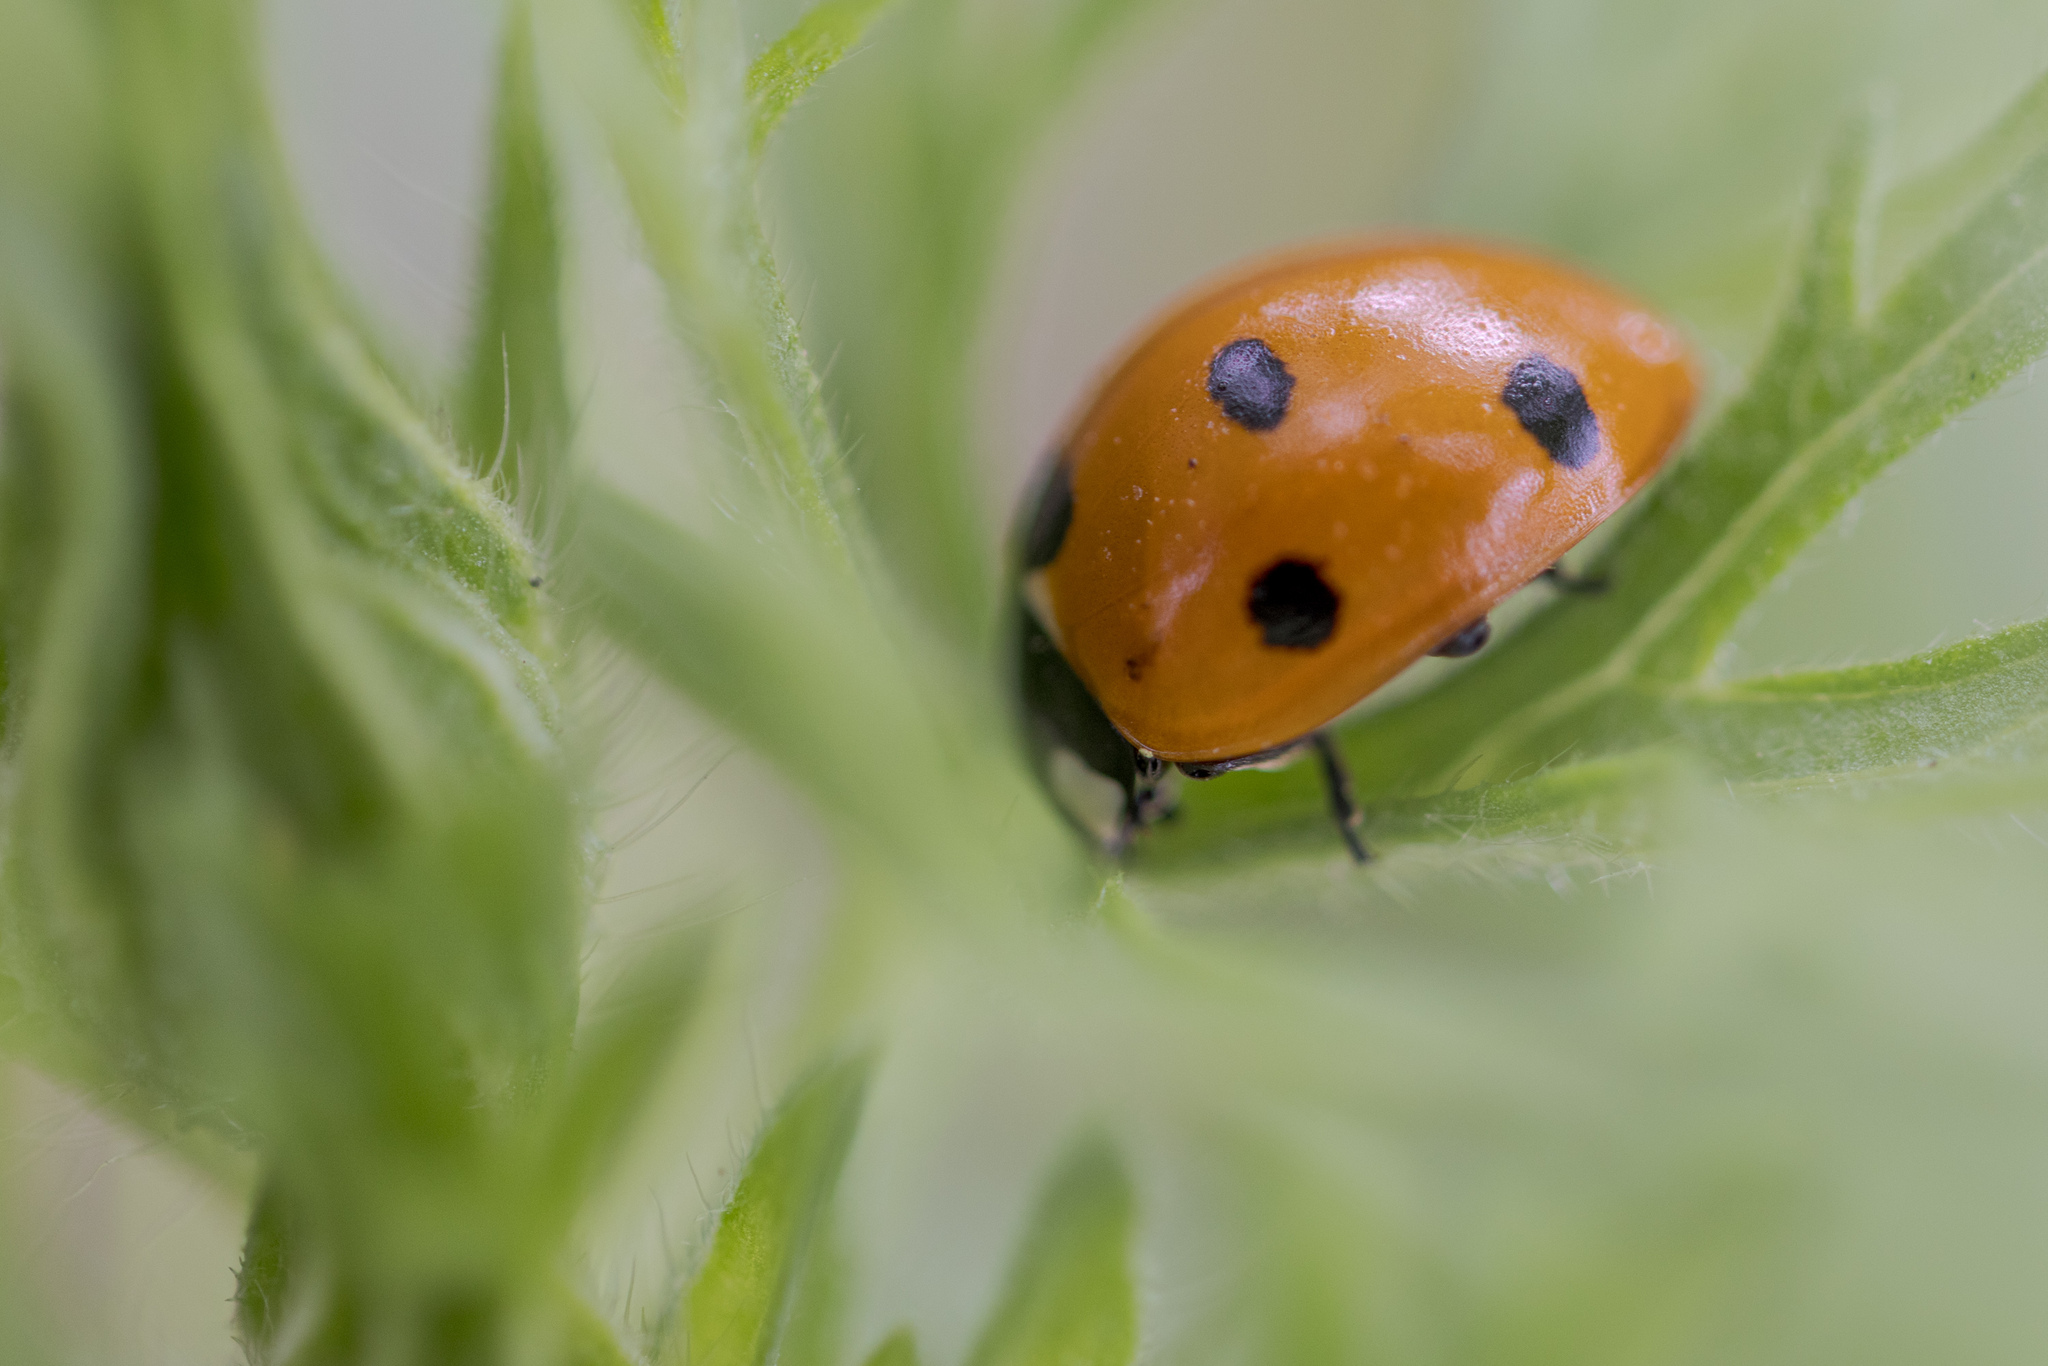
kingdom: Animalia
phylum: Arthropoda
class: Insecta
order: Coleoptera
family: Coccinellidae
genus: Coccinella
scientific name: Coccinella septempunctata
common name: Sevenspotted lady beetle
